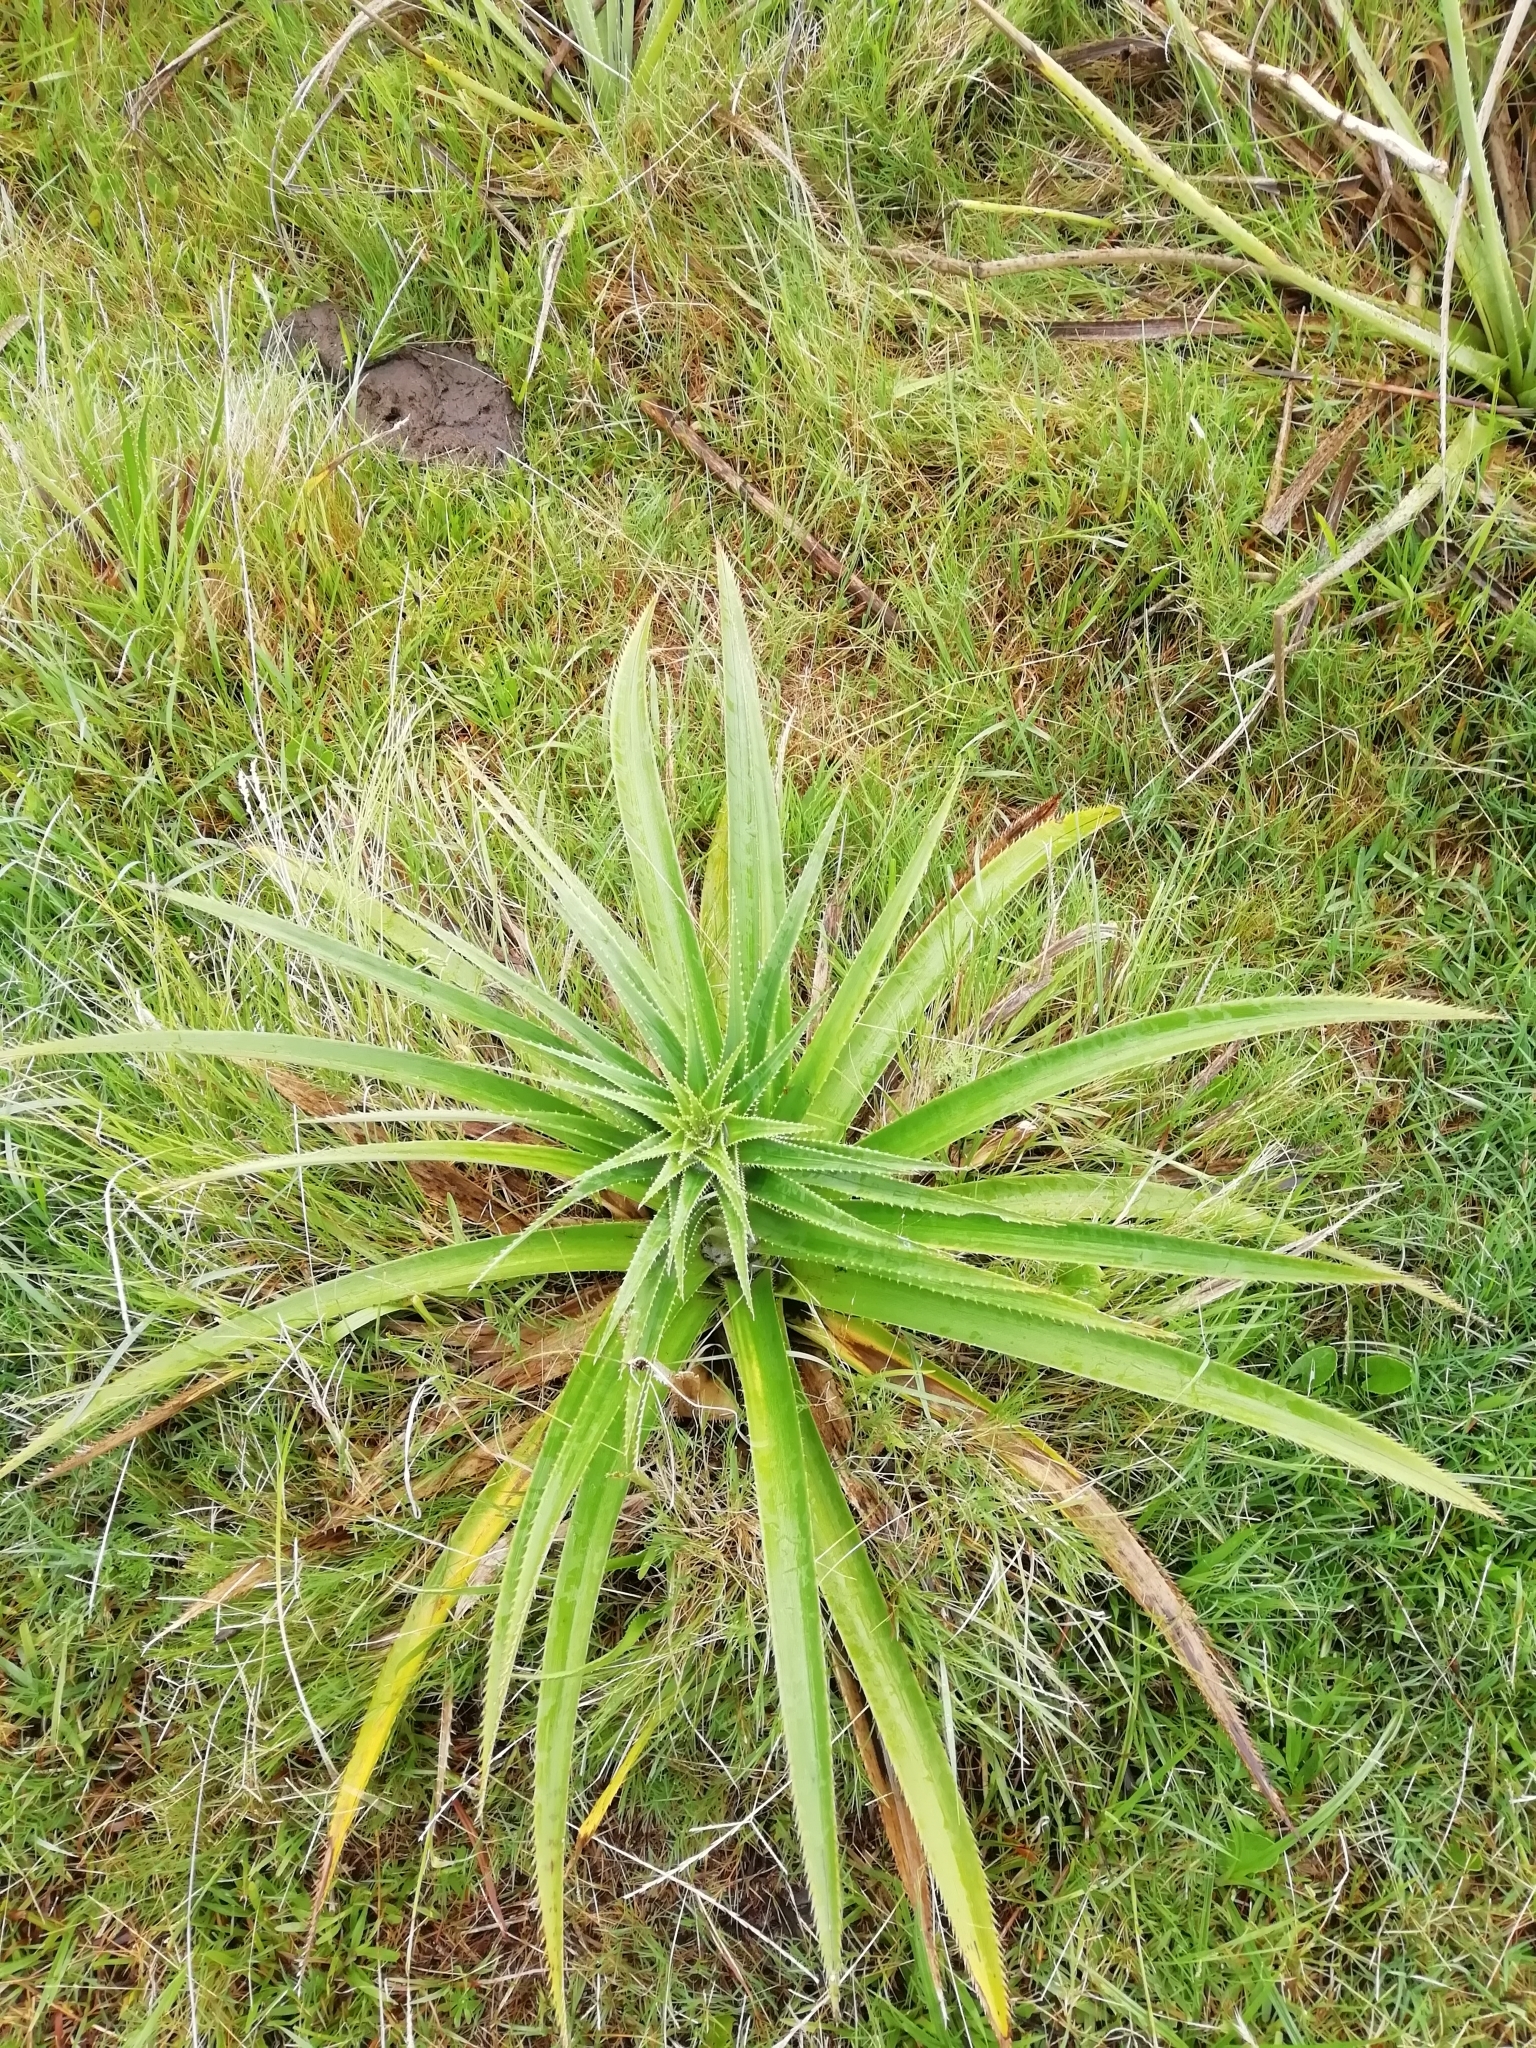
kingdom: Plantae
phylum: Tracheophyta
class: Magnoliopsida
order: Apiales
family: Apiaceae
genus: Eryngium
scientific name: Eryngium eburneum
